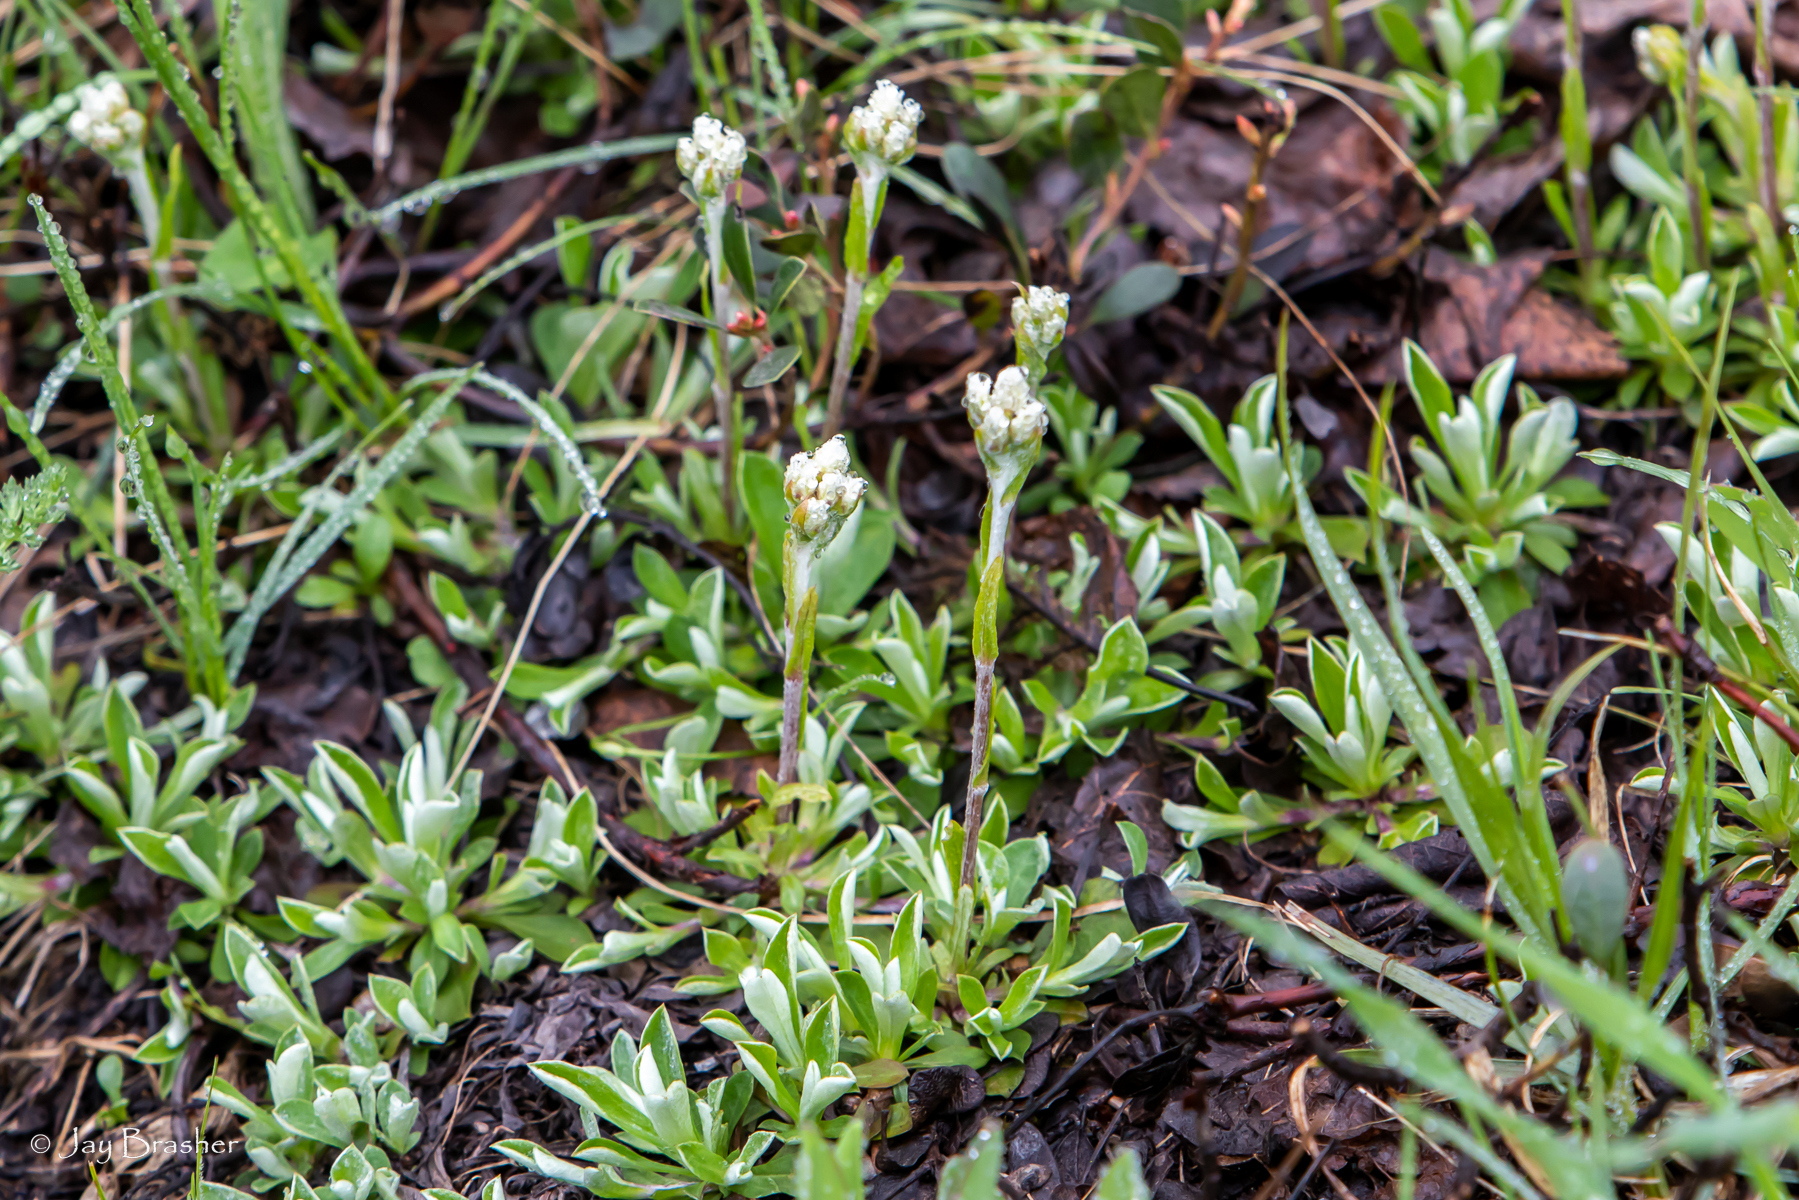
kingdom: Plantae
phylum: Tracheophyta
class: Magnoliopsida
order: Asterales
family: Asteraceae
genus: Antennaria
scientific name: Antennaria howellii
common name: Howell's pussytoes
